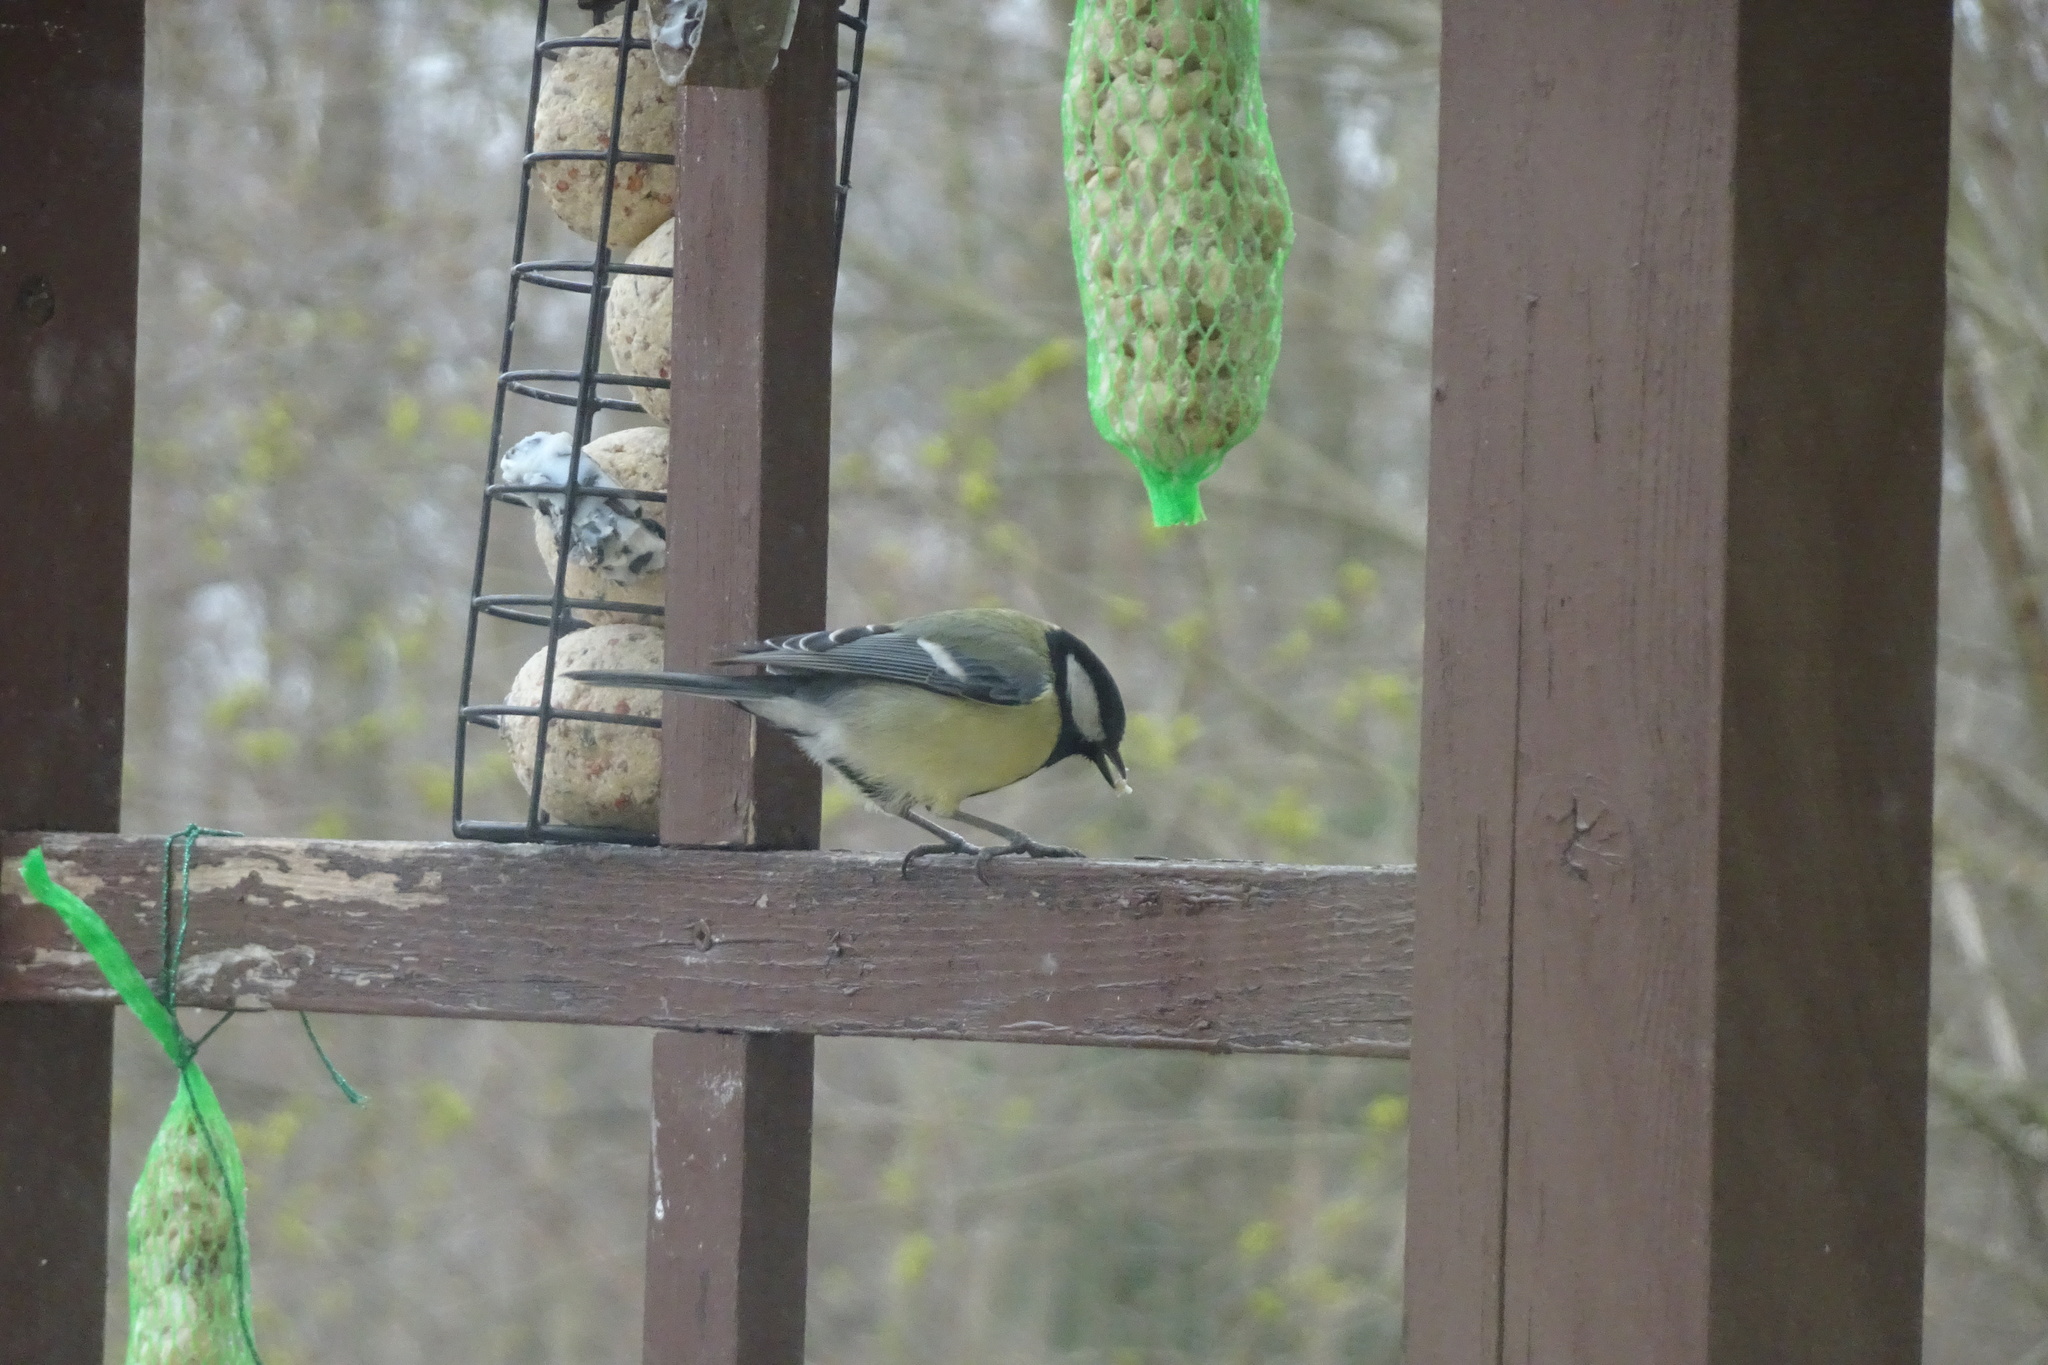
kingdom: Animalia
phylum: Chordata
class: Aves
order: Passeriformes
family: Paridae
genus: Parus
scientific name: Parus major
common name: Great tit
